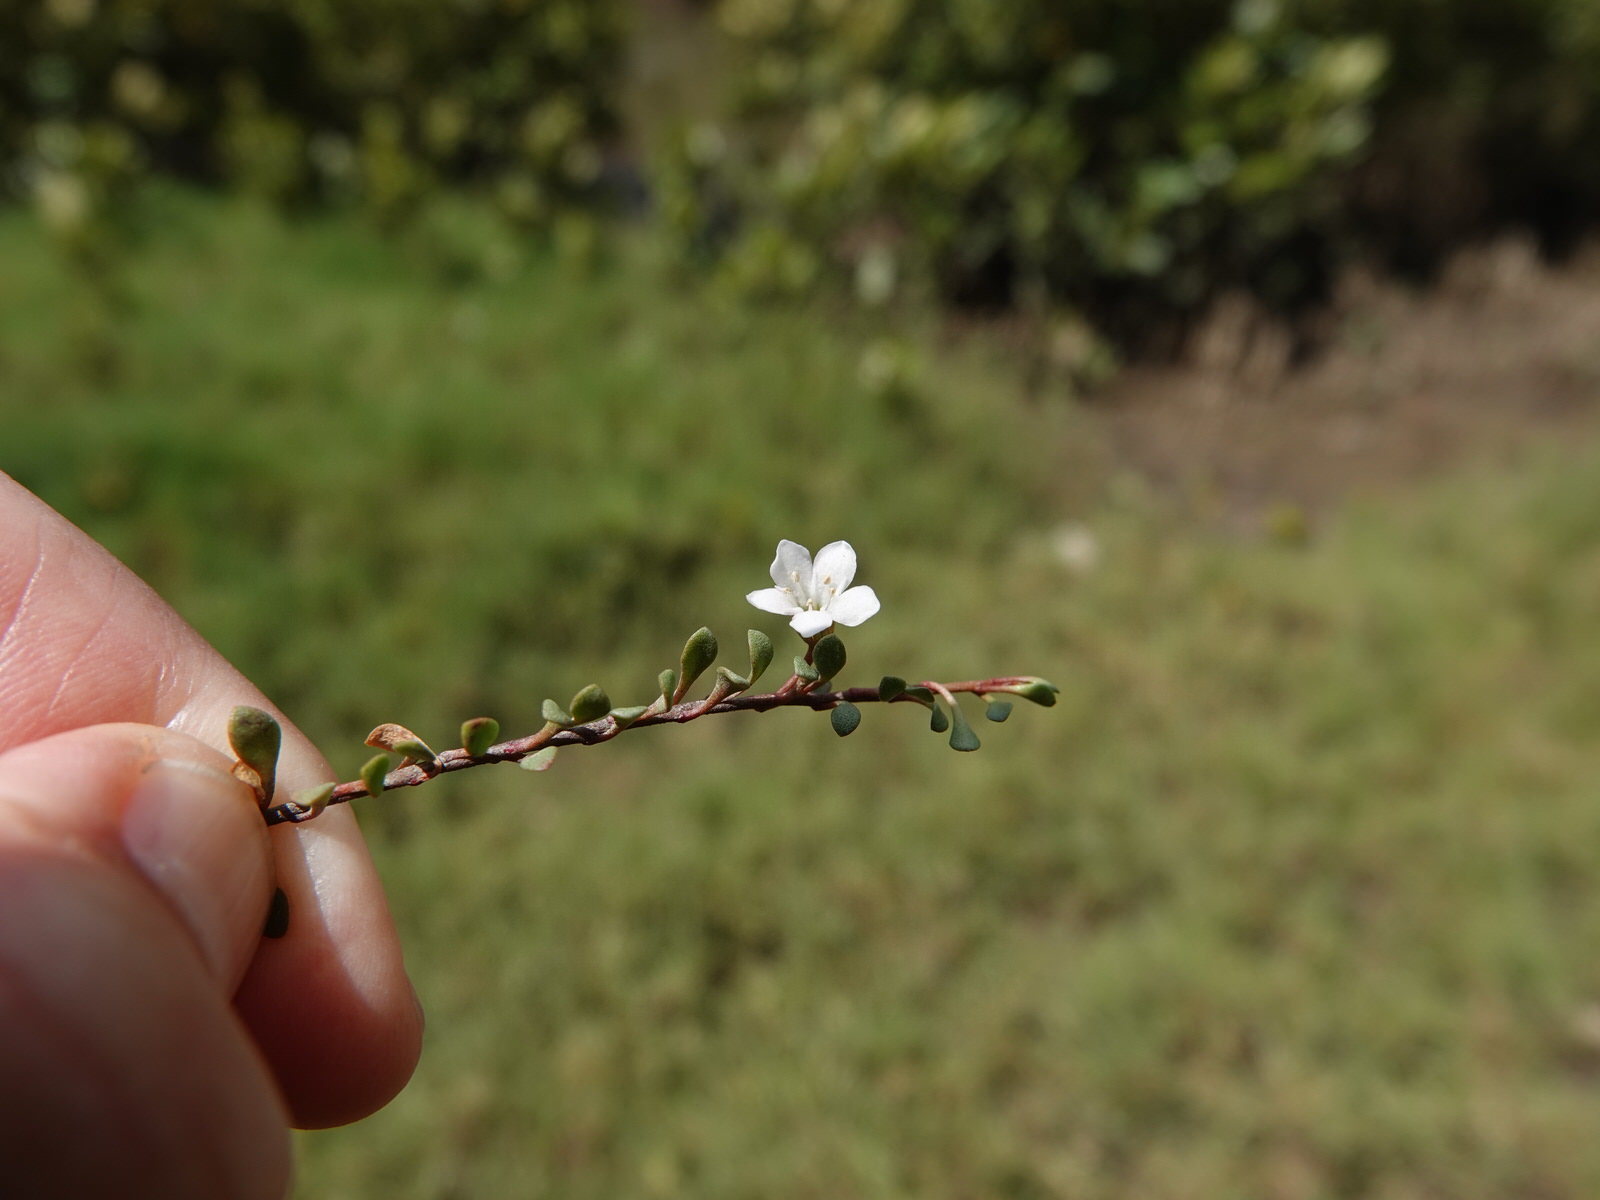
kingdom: Plantae
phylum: Tracheophyta
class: Magnoliopsida
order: Ericales
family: Primulaceae
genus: Samolus
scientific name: Samolus repens
